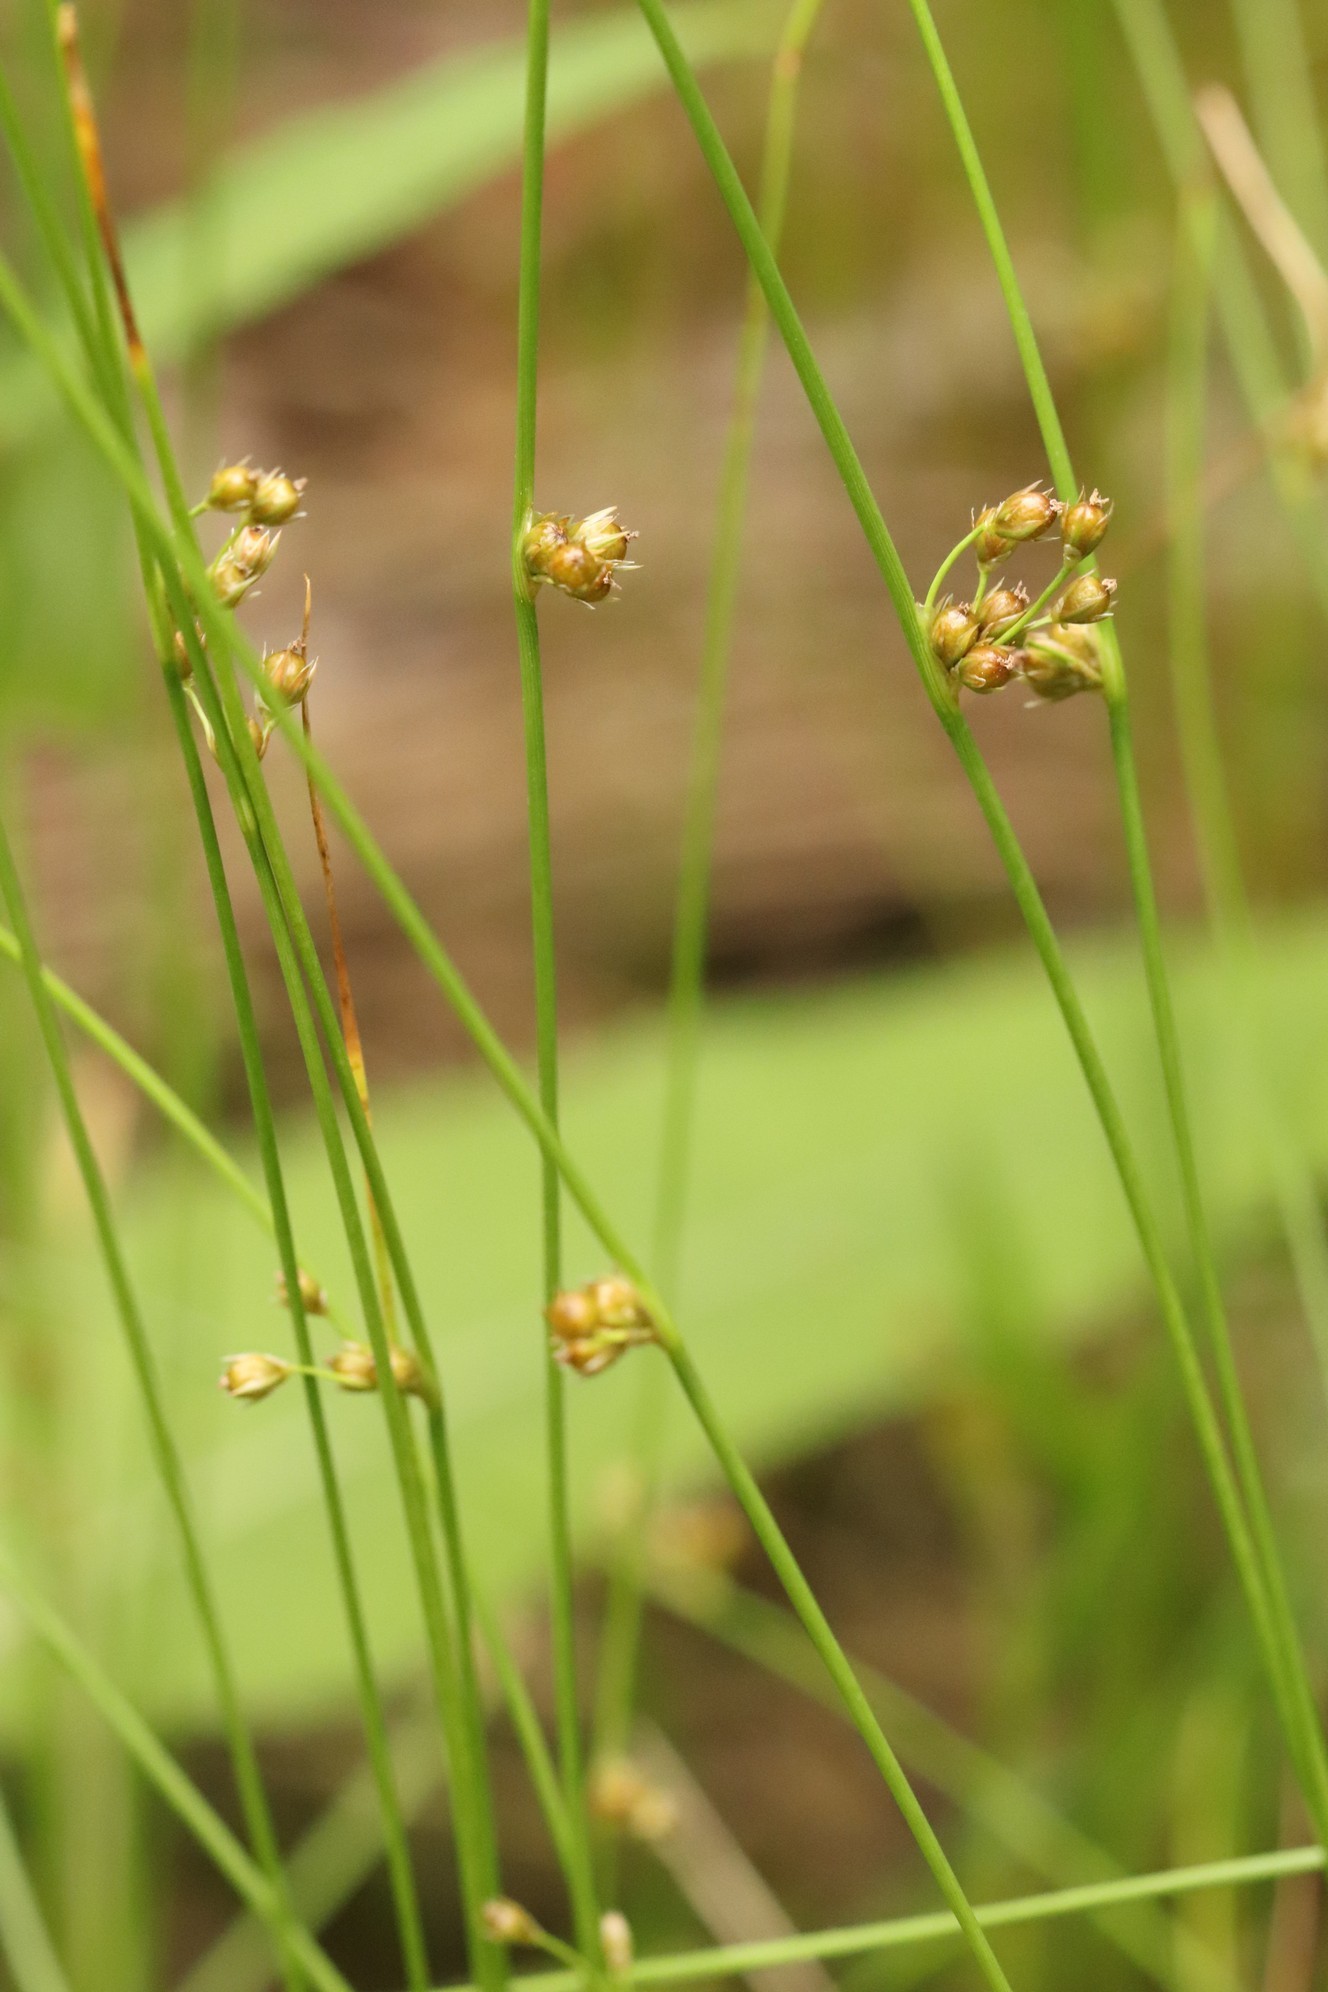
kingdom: Plantae
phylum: Tracheophyta
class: Liliopsida
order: Poales
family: Juncaceae
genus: Juncus
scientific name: Juncus filiformis
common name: Thread rush
